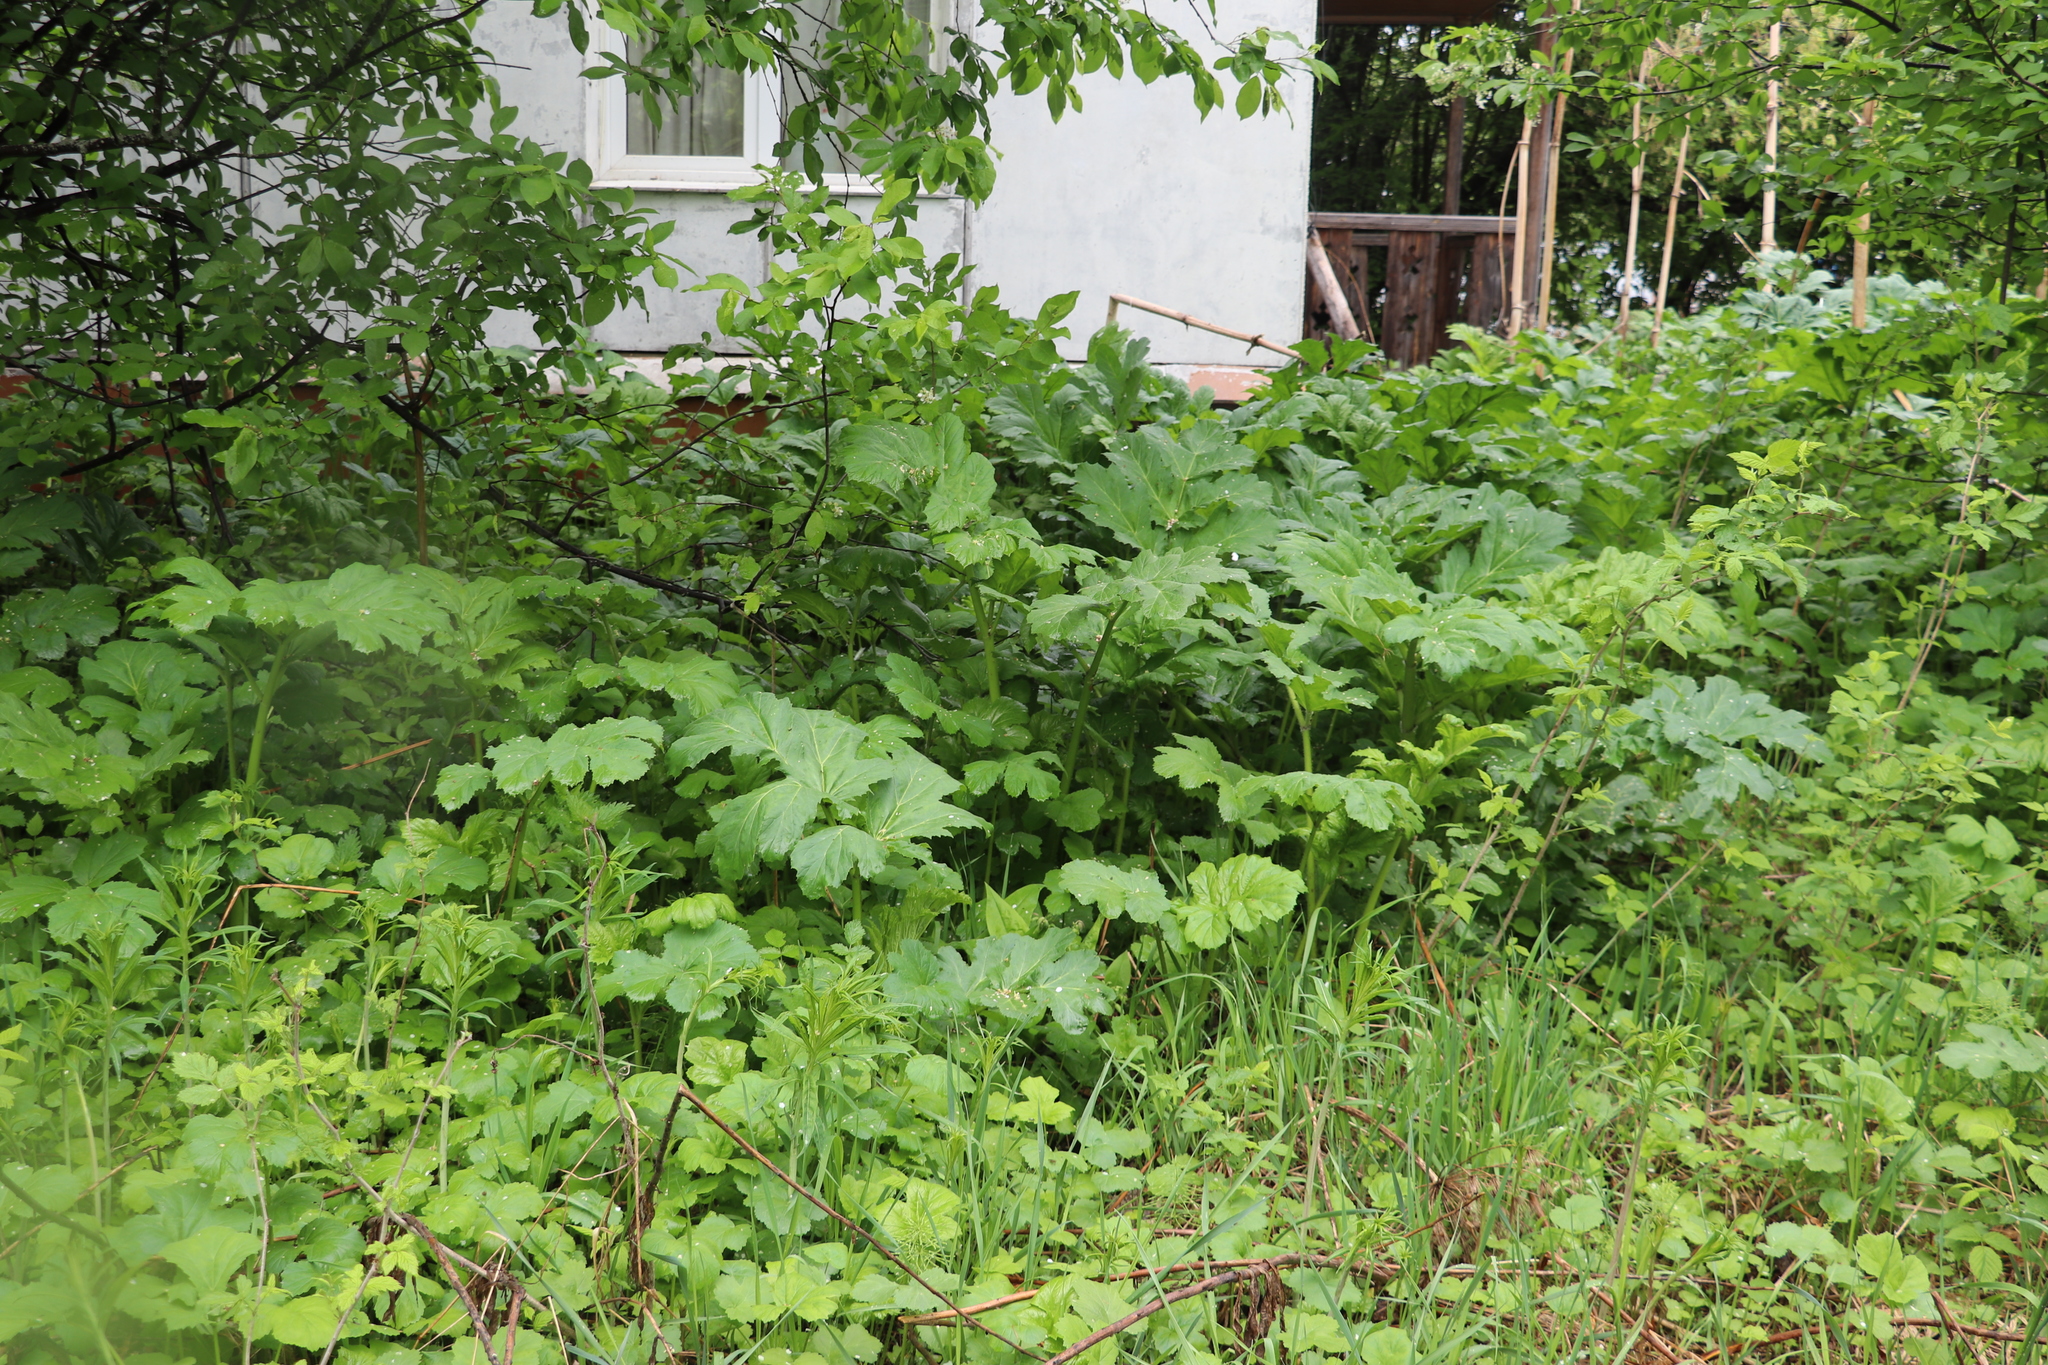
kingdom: Plantae
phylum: Tracheophyta
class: Magnoliopsida
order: Apiales
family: Apiaceae
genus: Heracleum
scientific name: Heracleum sosnowskyi
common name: Sosnowsky's hogweed
